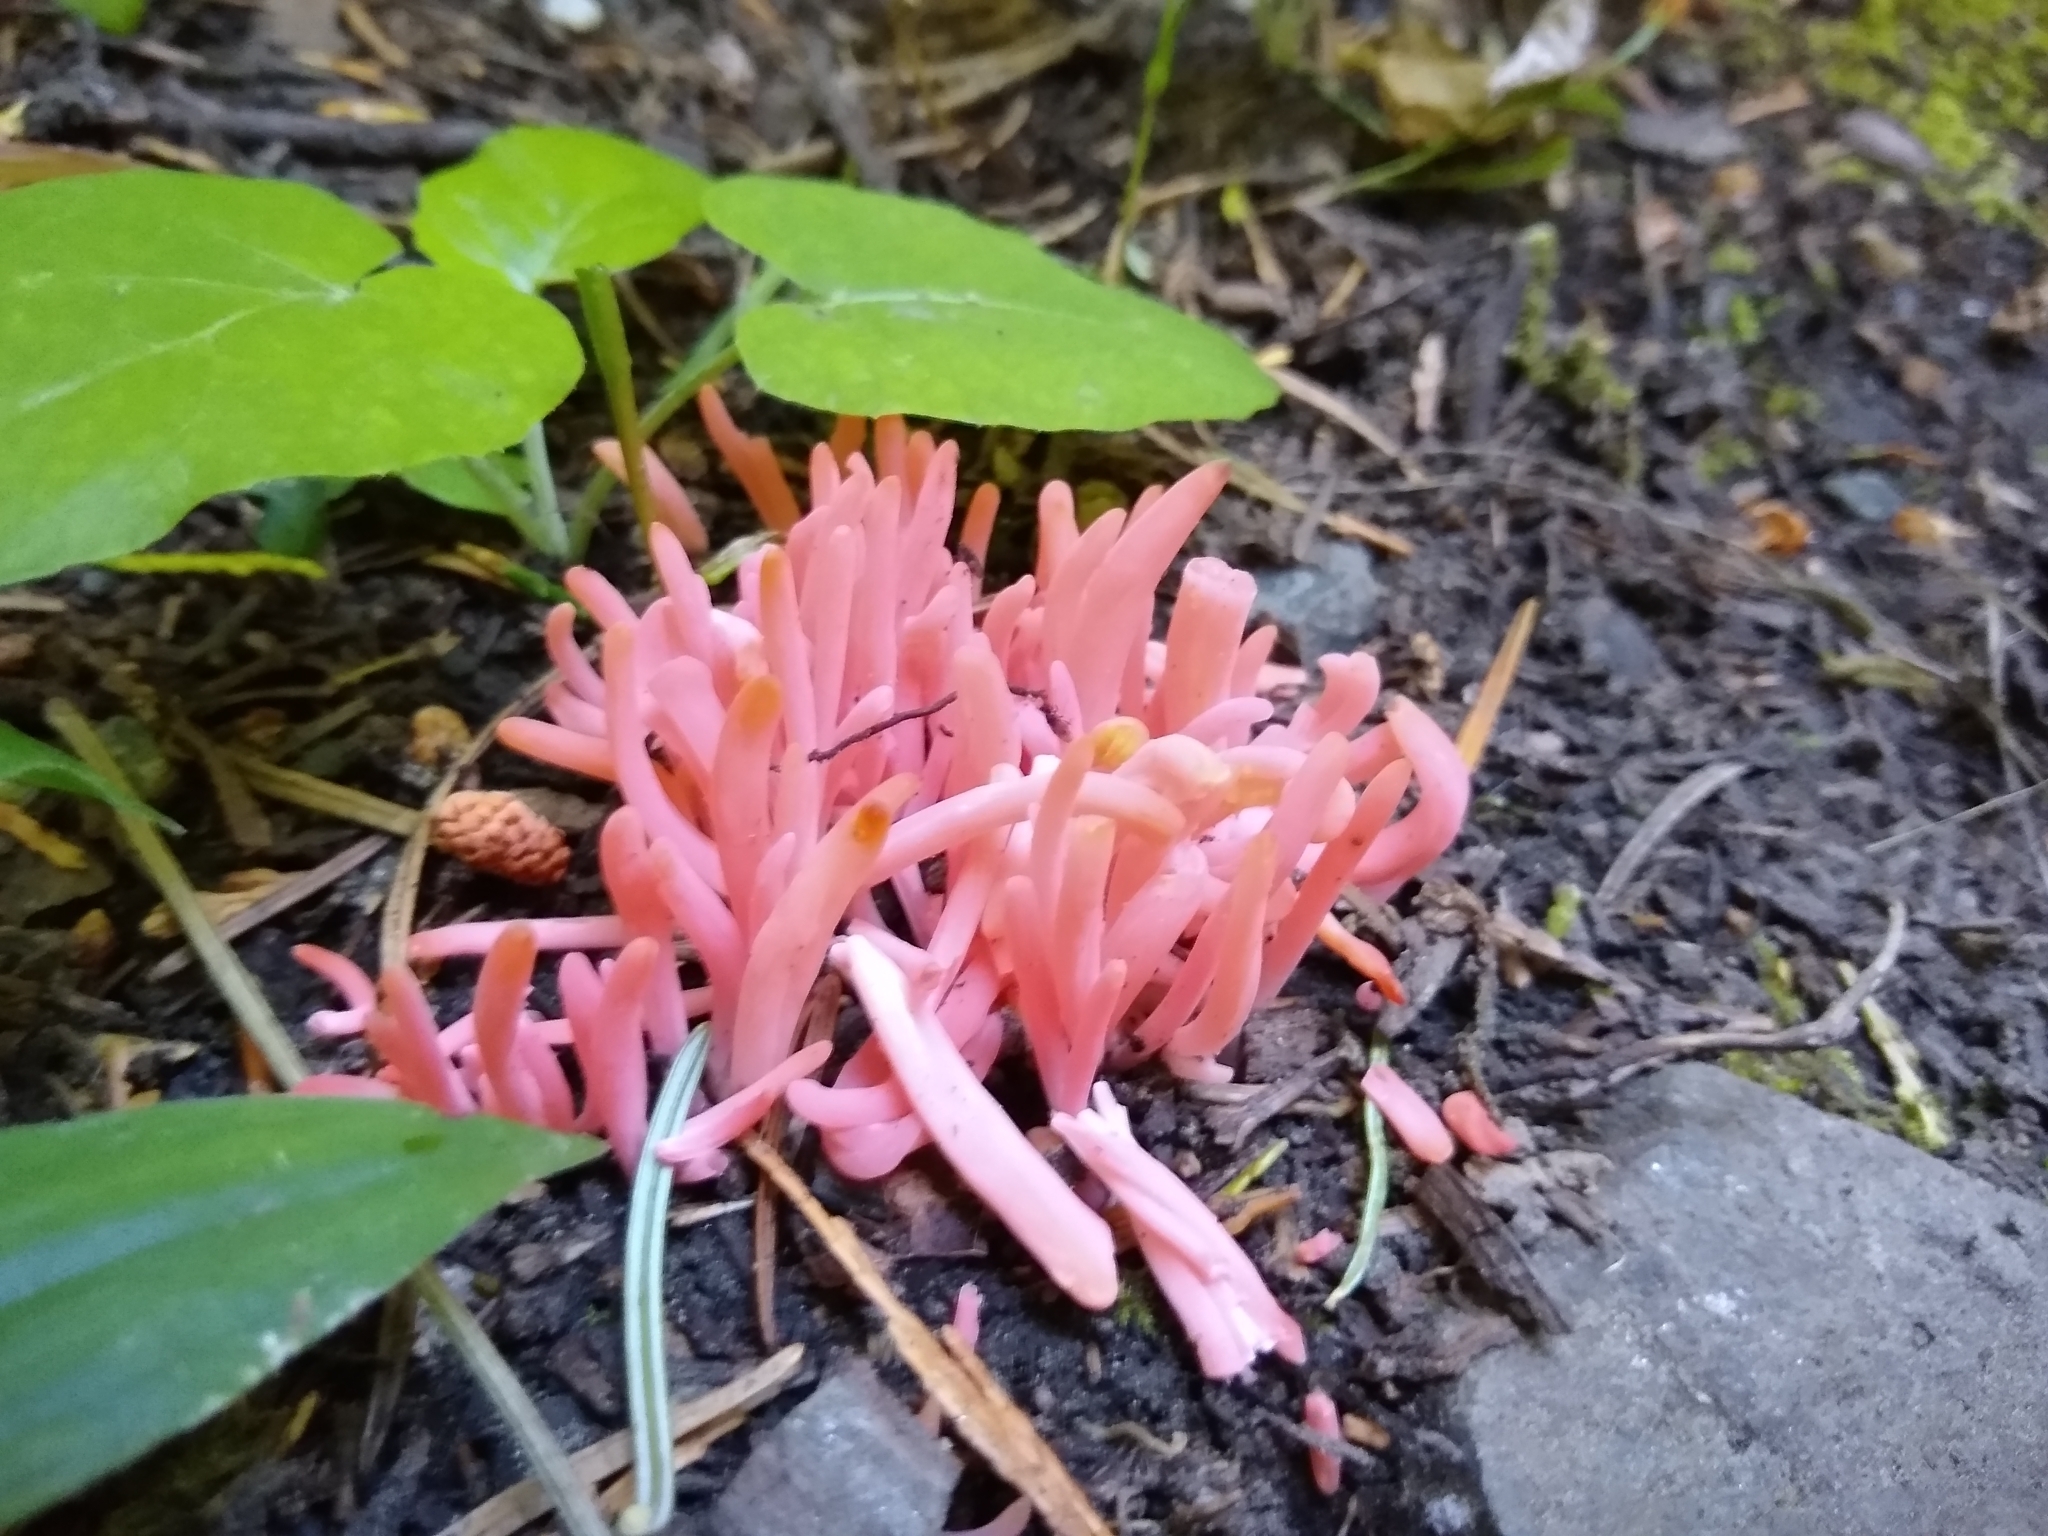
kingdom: Fungi
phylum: Basidiomycota
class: Agaricomycetes
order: Agaricales
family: Clavariaceae
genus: Clavaria
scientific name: Clavaria rosea
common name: Rose spindles
